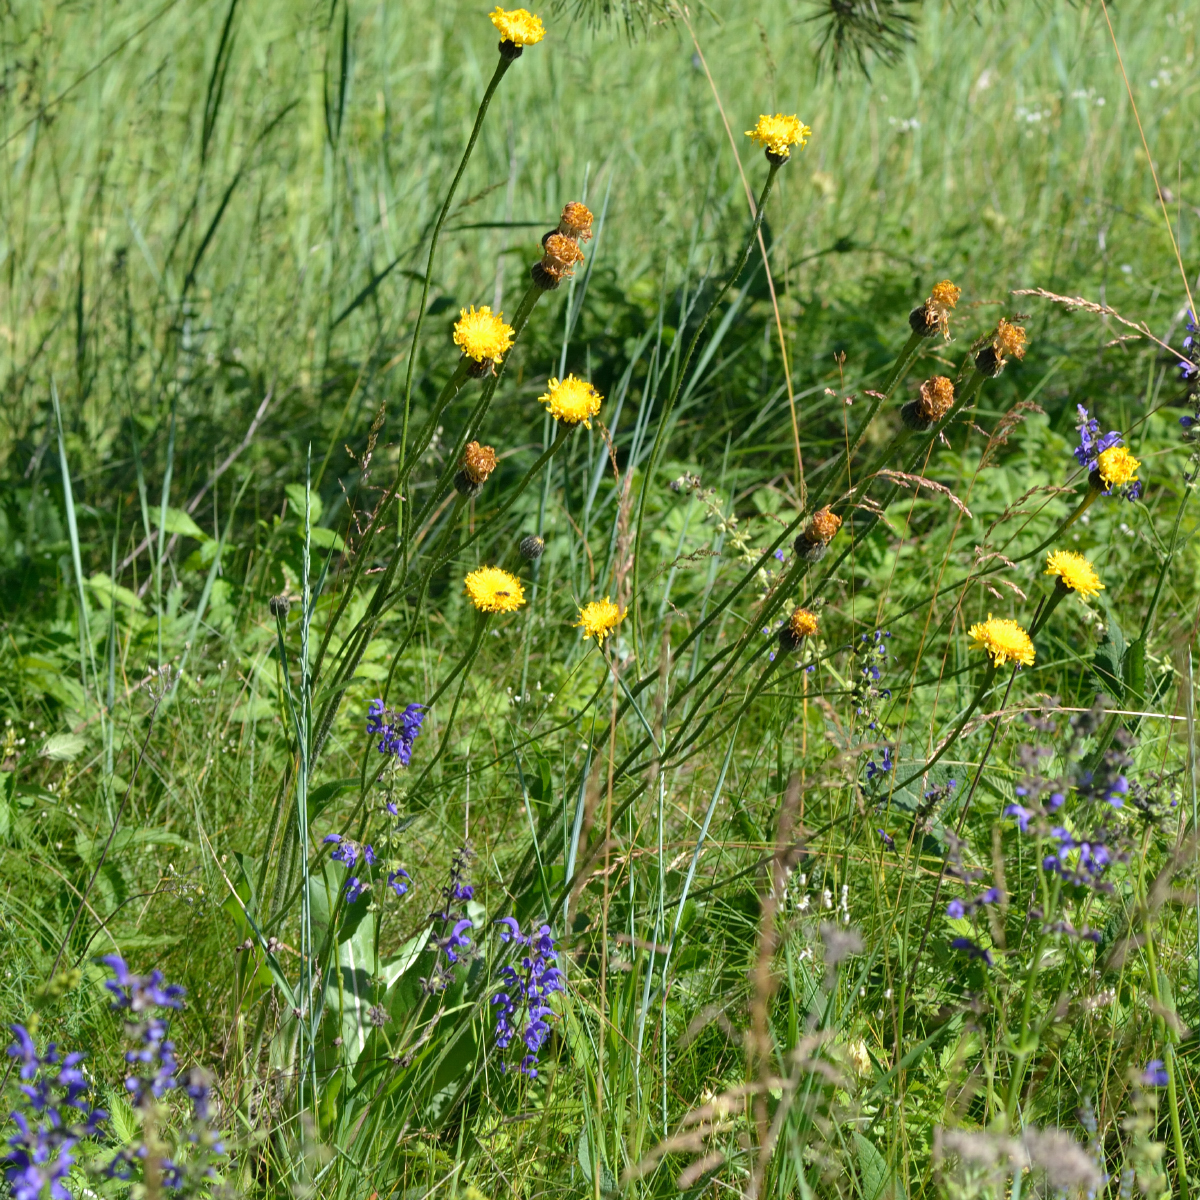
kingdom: Plantae
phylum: Tracheophyta
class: Magnoliopsida
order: Asterales
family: Asteraceae
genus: Trommsdorffia
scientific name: Trommsdorffia maculata
